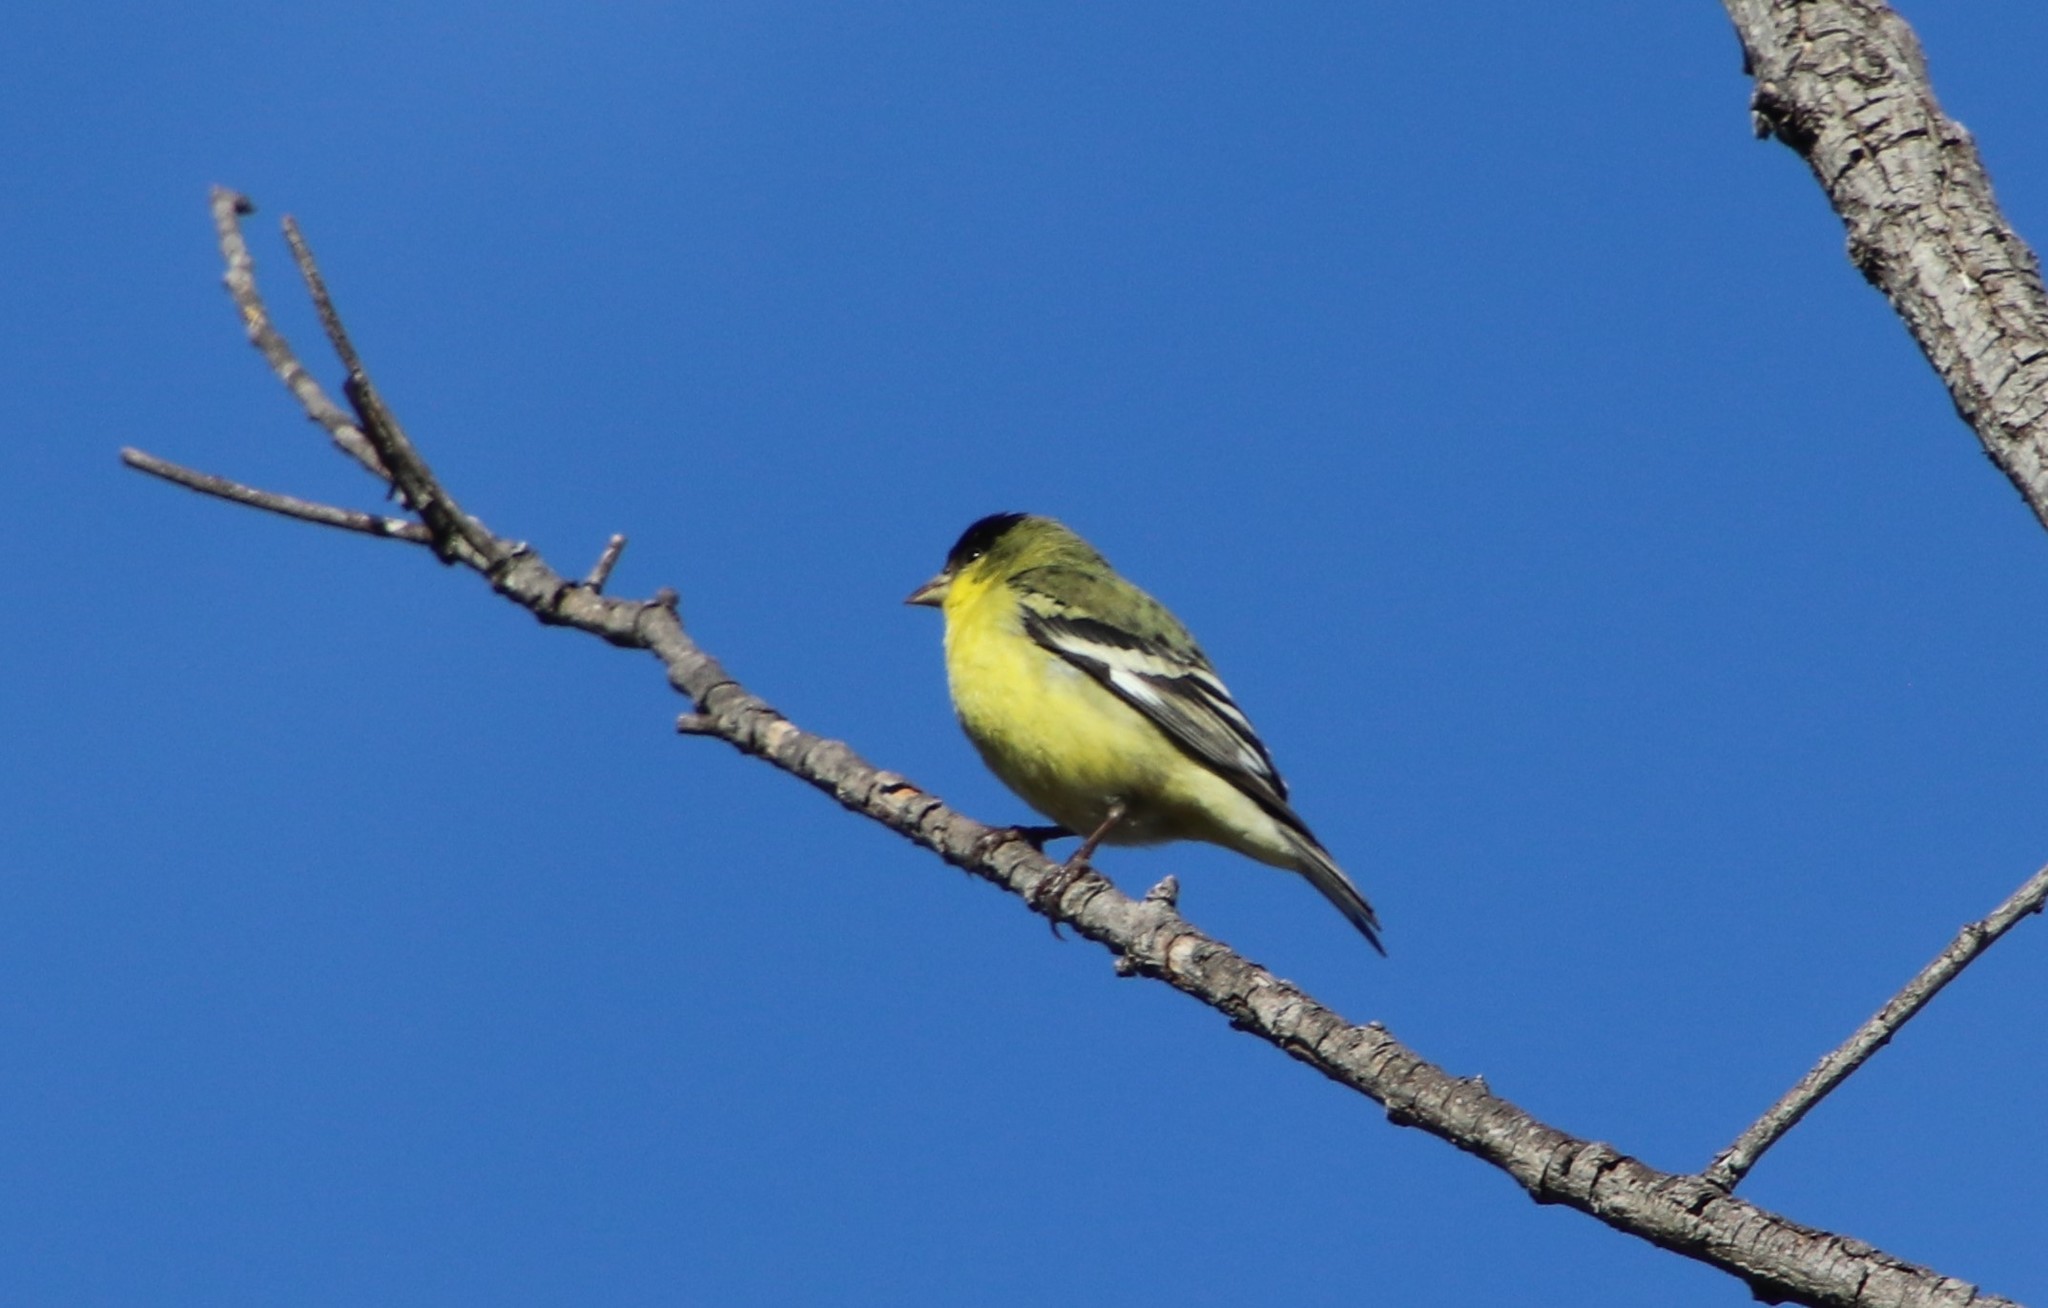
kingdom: Animalia
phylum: Chordata
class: Aves
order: Passeriformes
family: Fringillidae
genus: Spinus
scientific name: Spinus psaltria
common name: Lesser goldfinch
